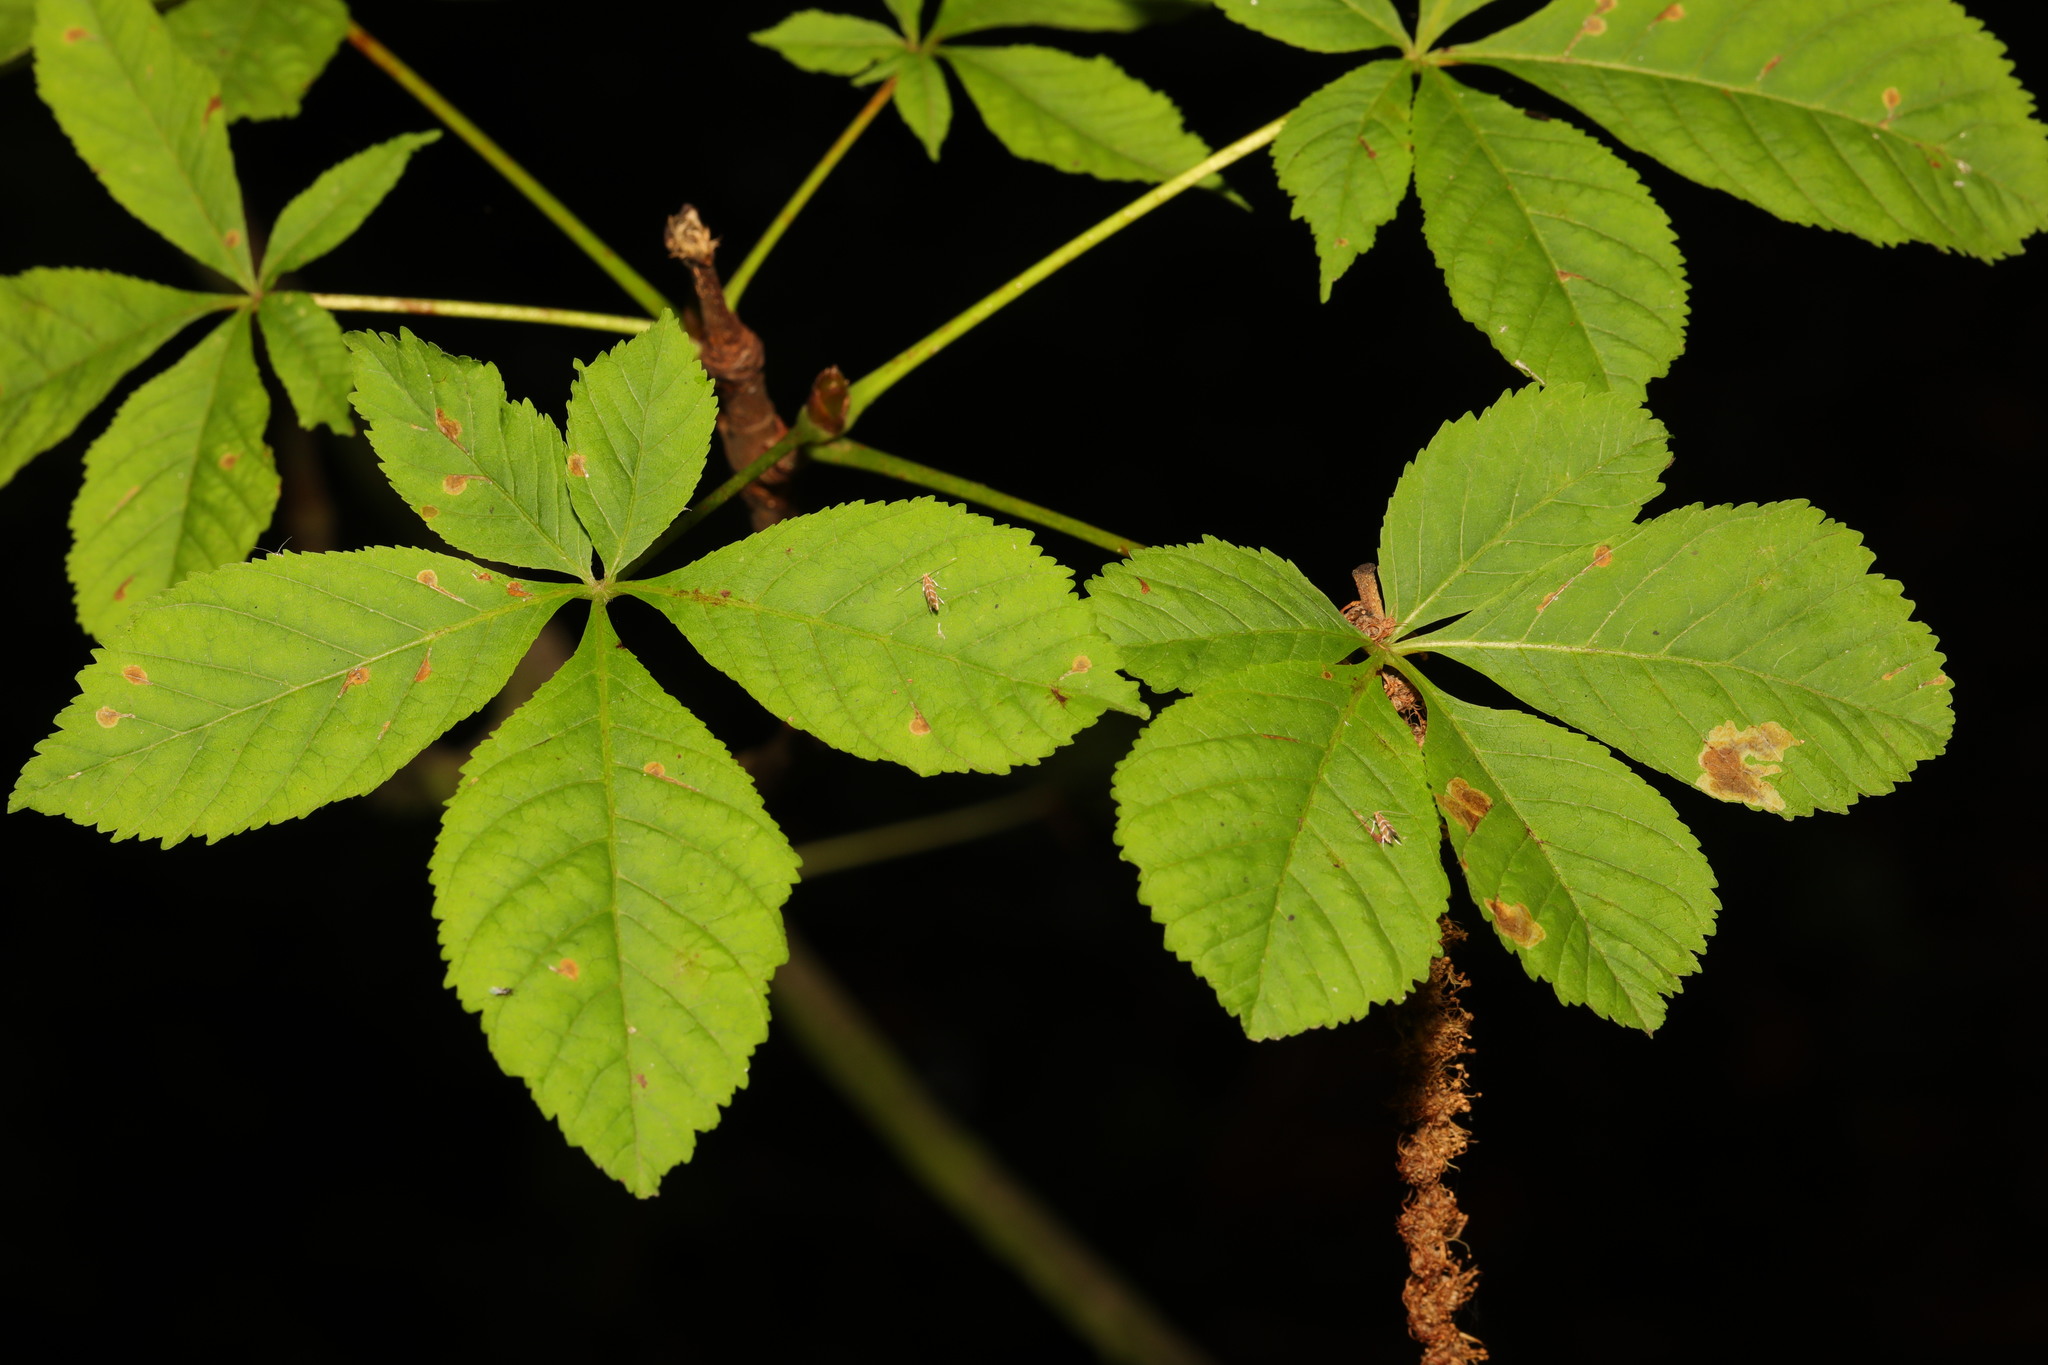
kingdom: Plantae
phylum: Tracheophyta
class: Magnoliopsida
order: Sapindales
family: Sapindaceae
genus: Aesculus
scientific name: Aesculus hippocastanum
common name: Horse-chestnut
